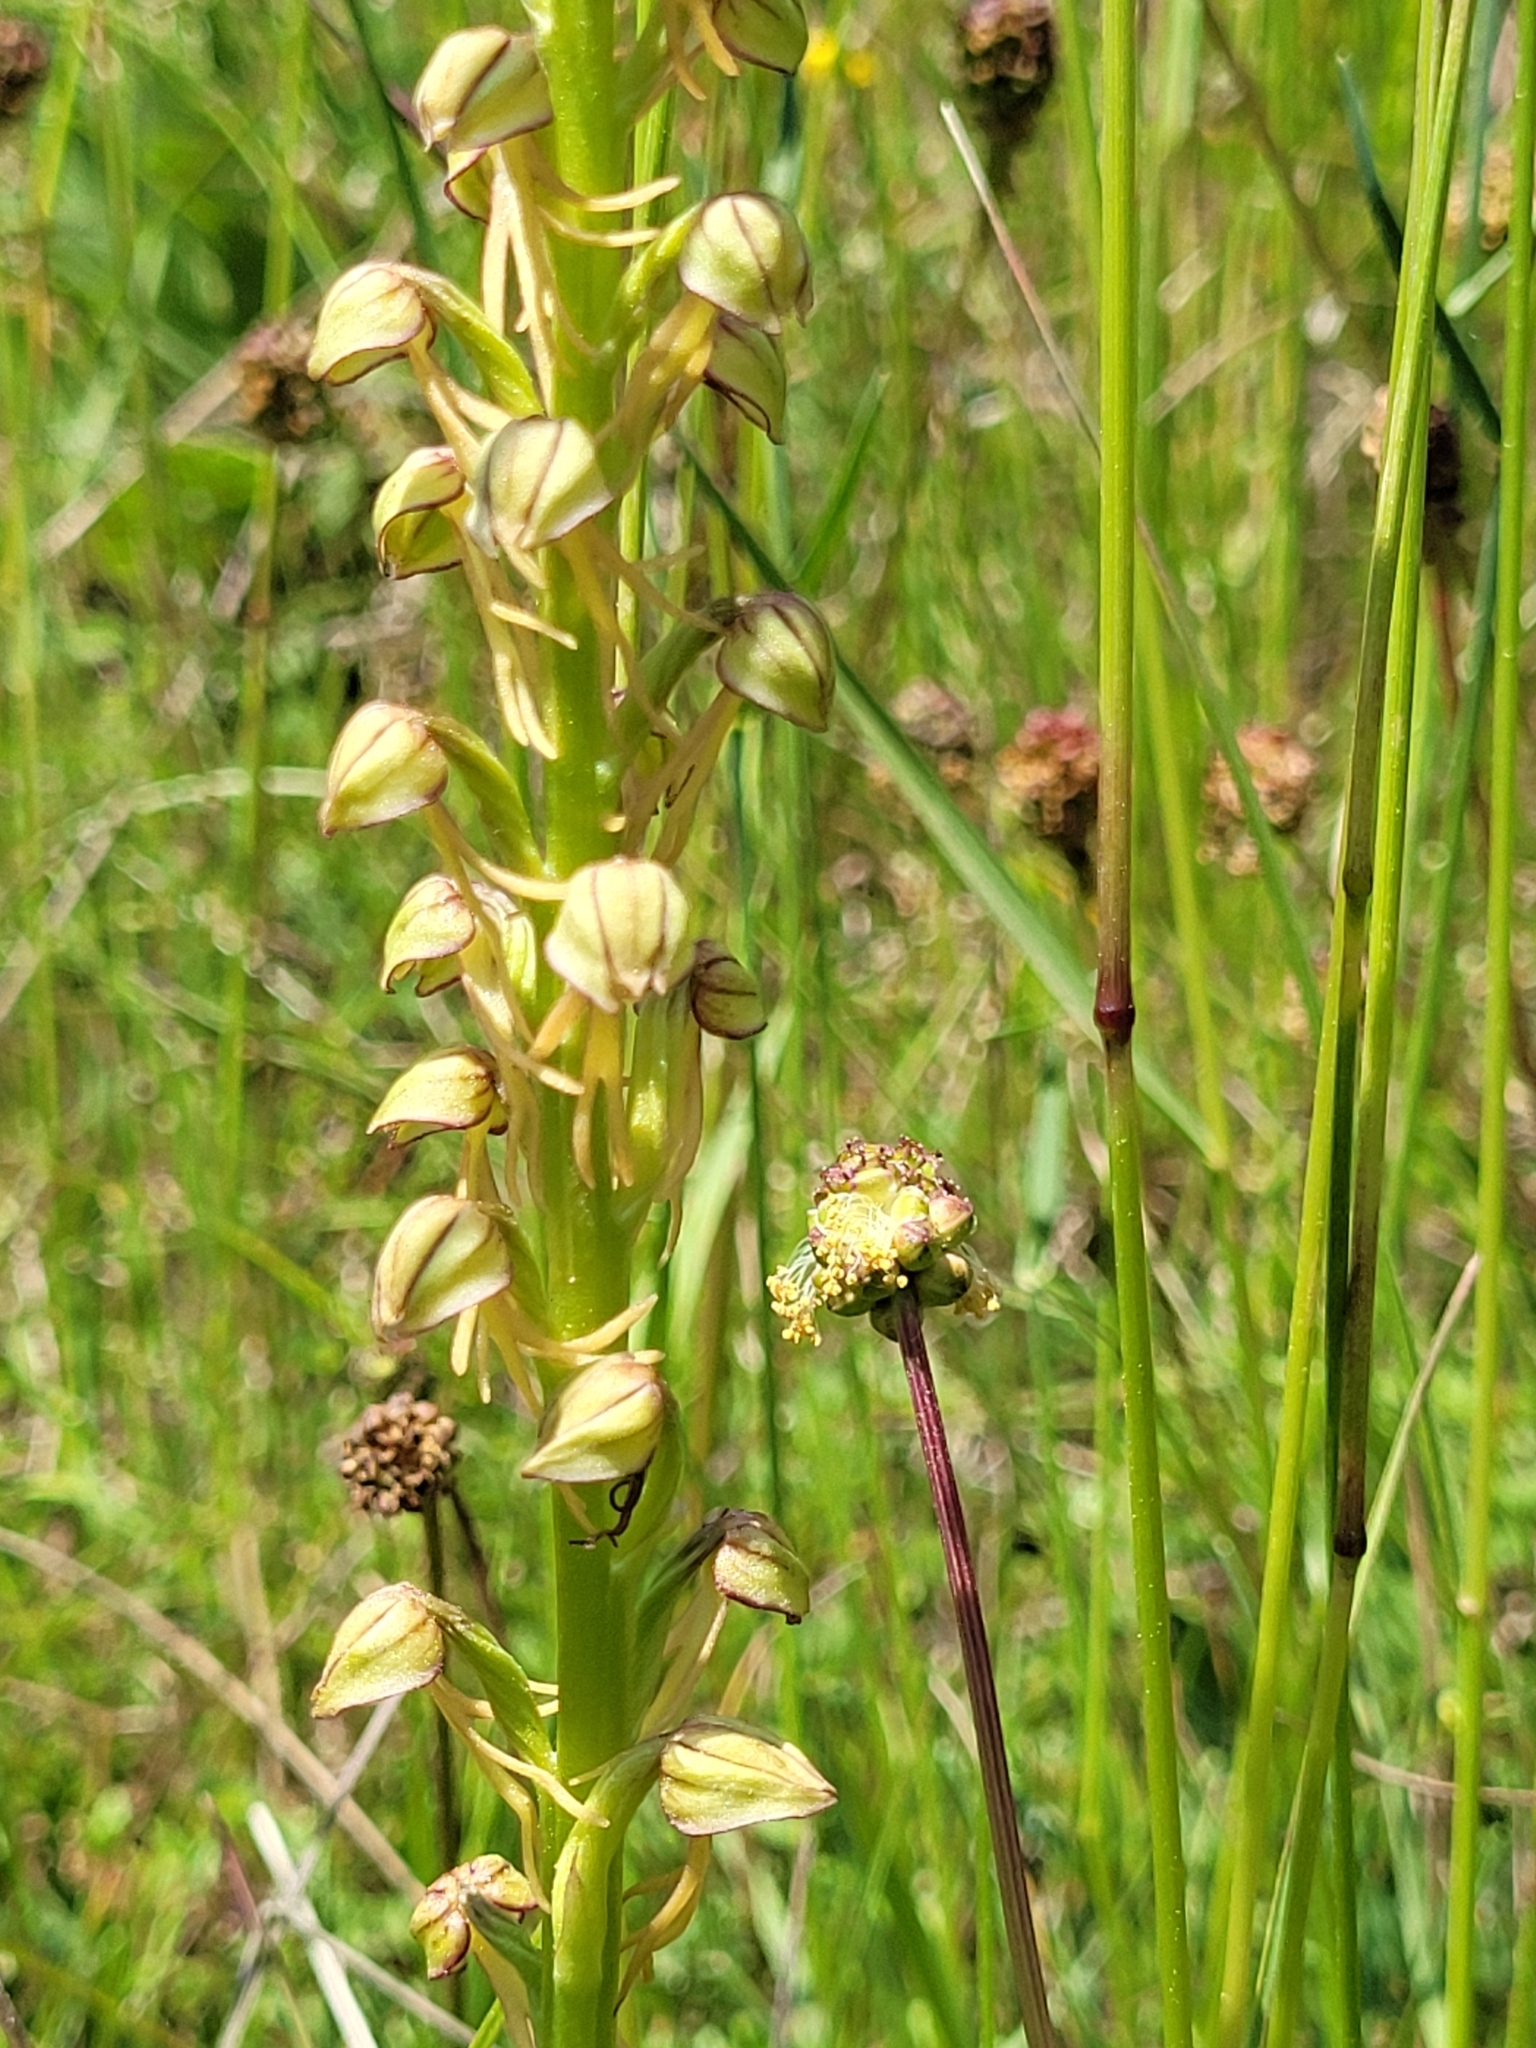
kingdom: Plantae
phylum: Tracheophyta
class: Liliopsida
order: Asparagales
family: Orchidaceae
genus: Orchis
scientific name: Orchis anthropophora
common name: Man orchid
